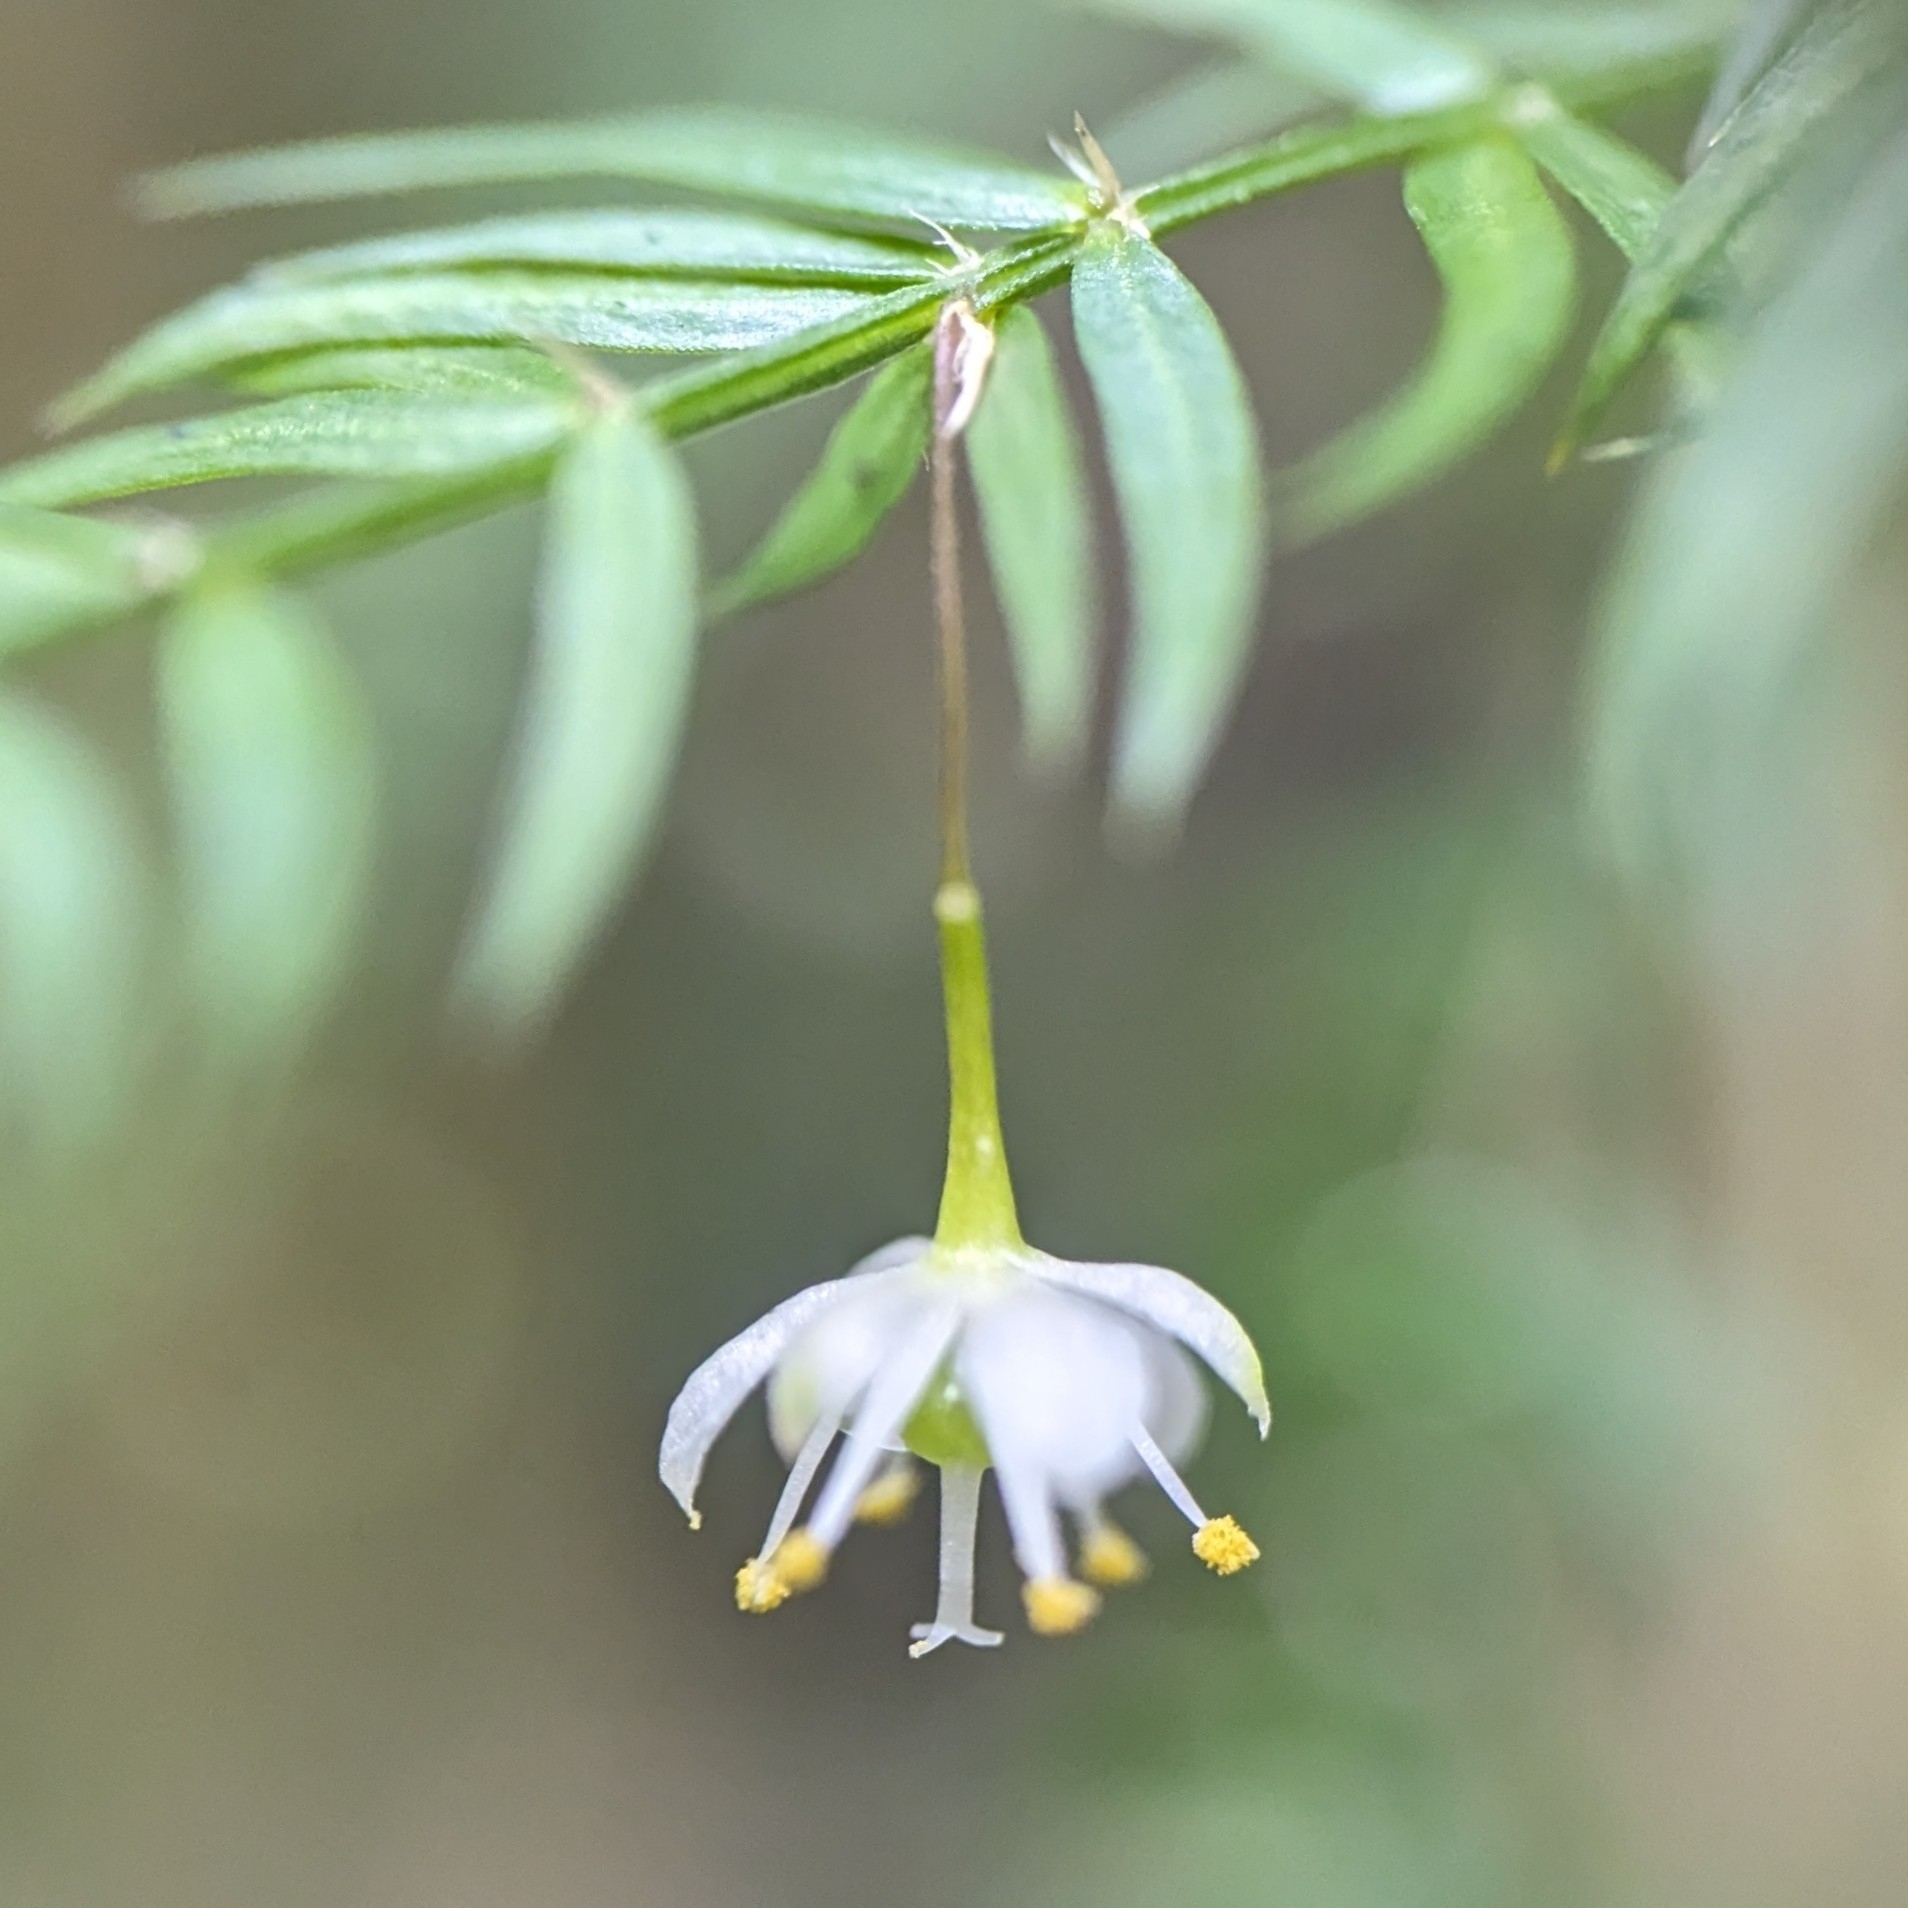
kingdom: Plantae
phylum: Tracheophyta
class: Liliopsida
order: Asparagales
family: Asparagaceae
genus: Asparagus
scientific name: Asparagus scandens
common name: Asparagus-fern
